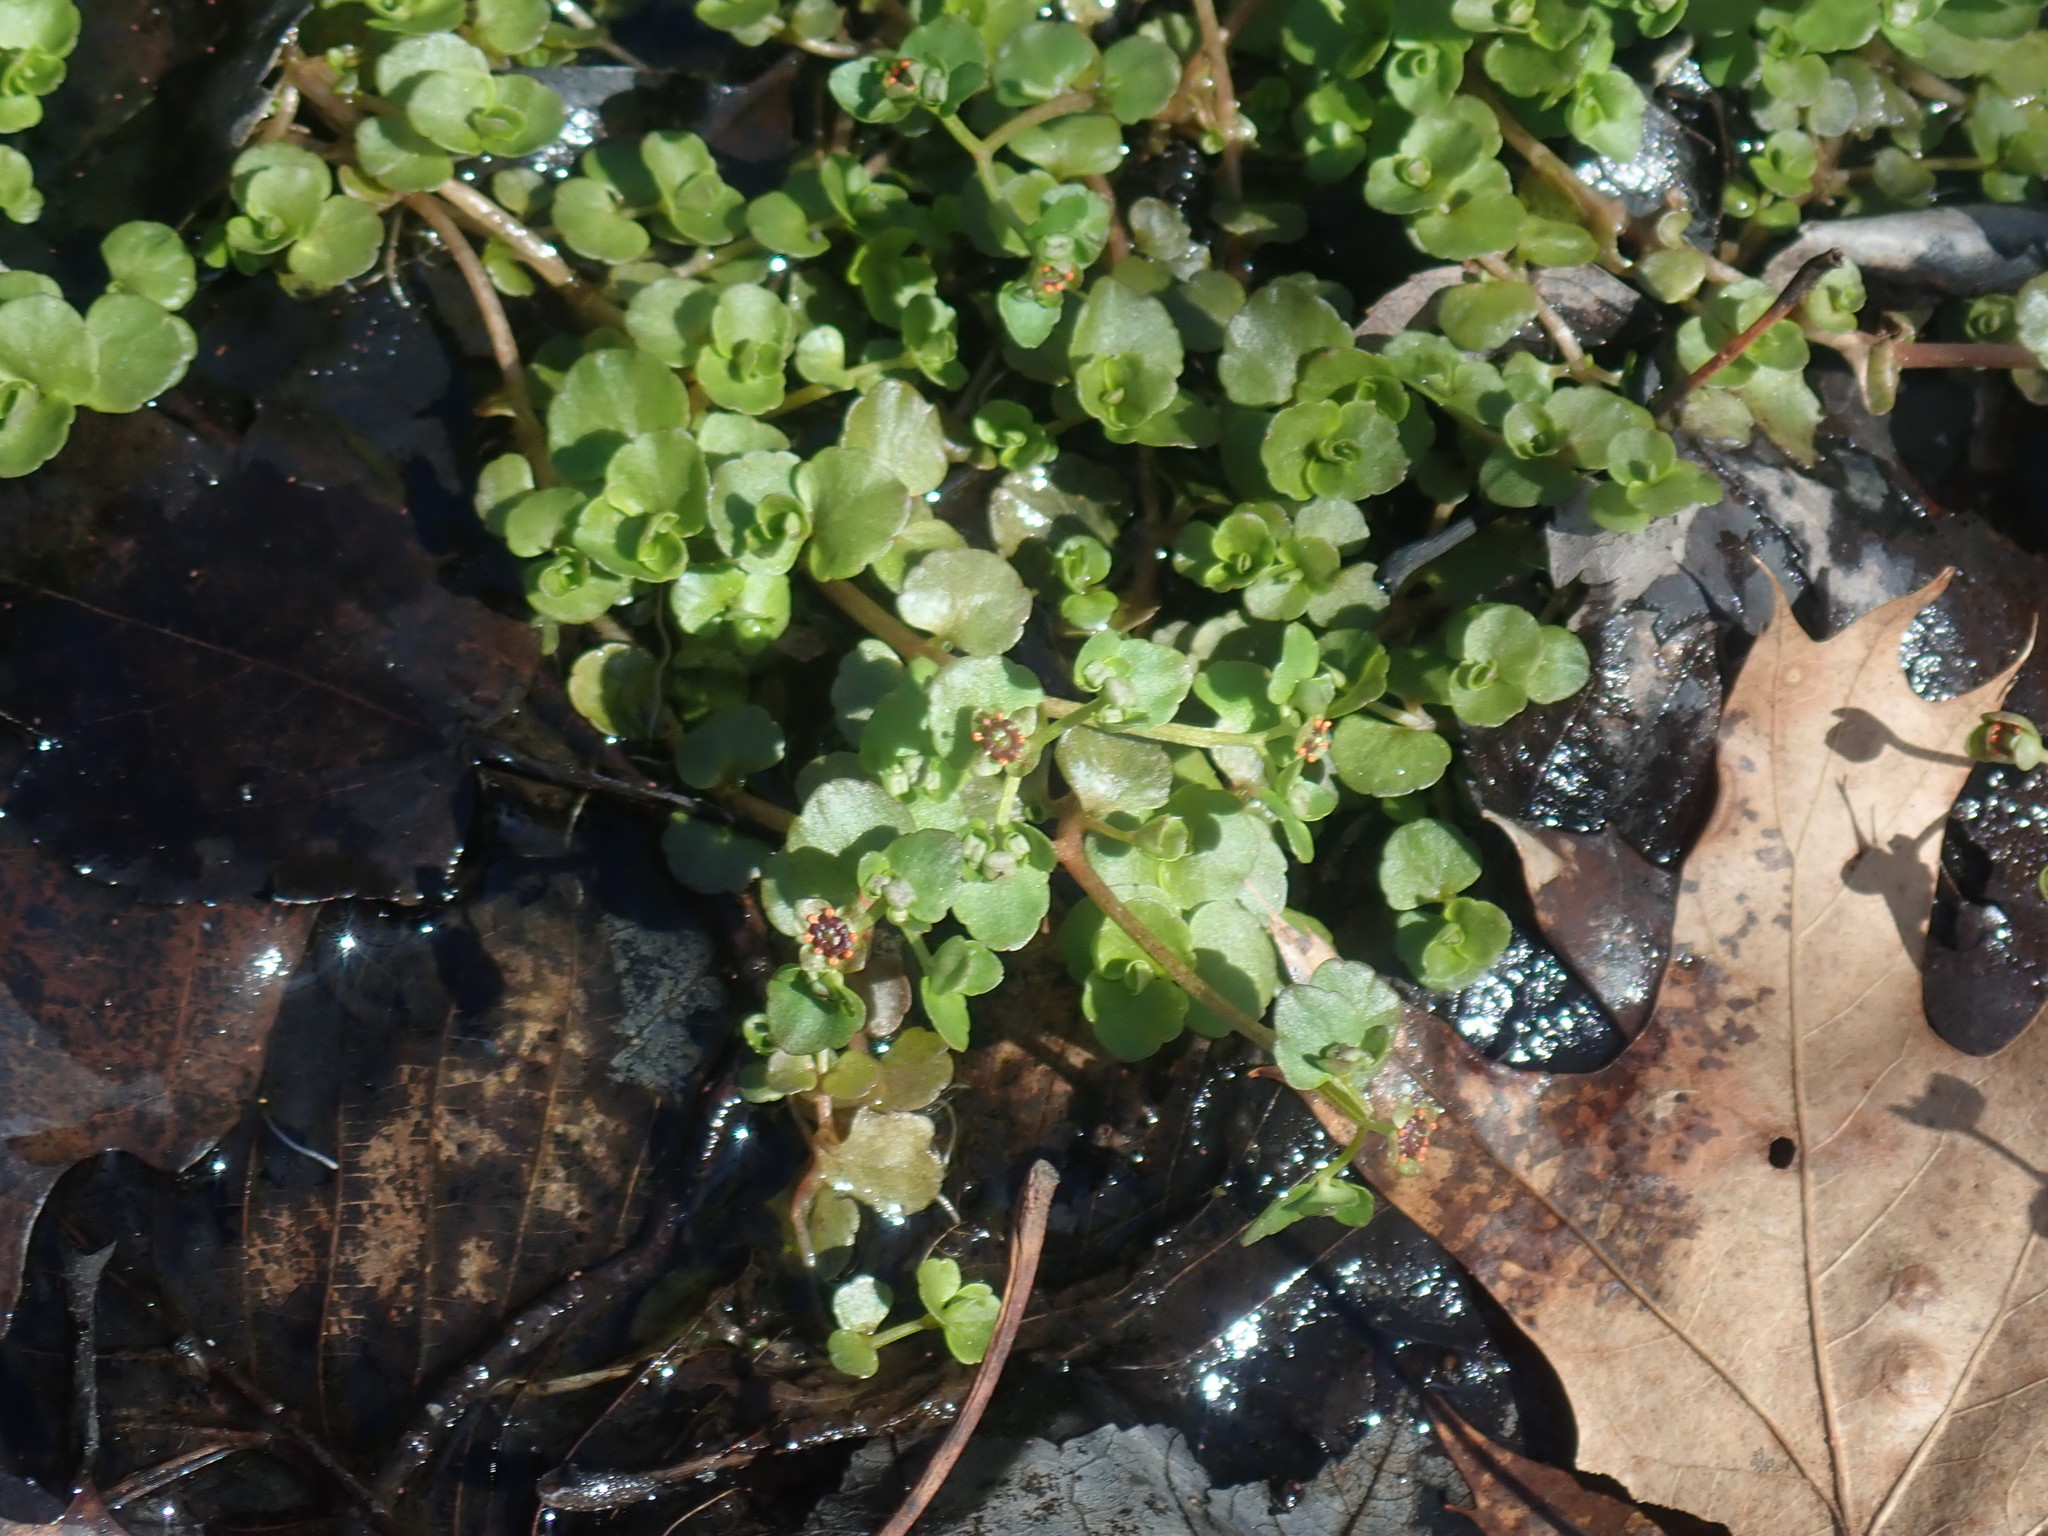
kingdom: Plantae
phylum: Tracheophyta
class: Magnoliopsida
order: Saxifragales
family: Saxifragaceae
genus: Chrysosplenium
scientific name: Chrysosplenium americanum
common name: American golden-saxifrage
